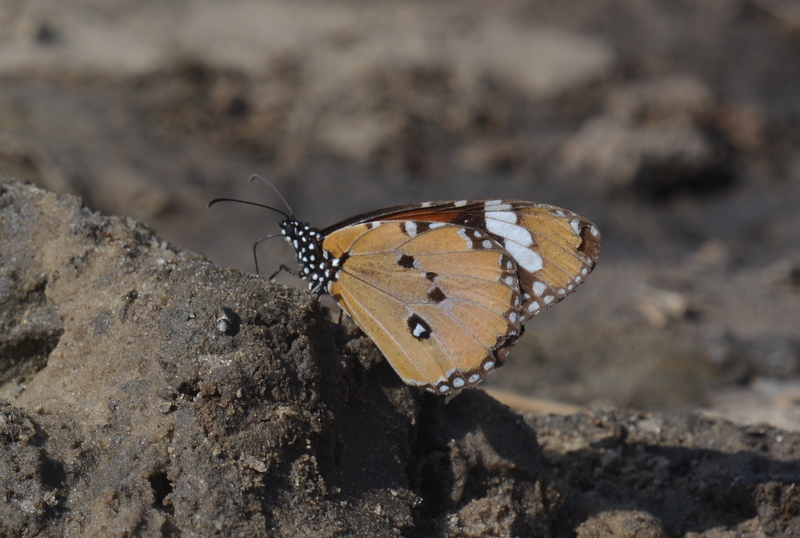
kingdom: Animalia
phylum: Arthropoda
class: Insecta
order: Lepidoptera
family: Nymphalidae
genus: Danaus
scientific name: Danaus chrysippus
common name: Plain tiger
